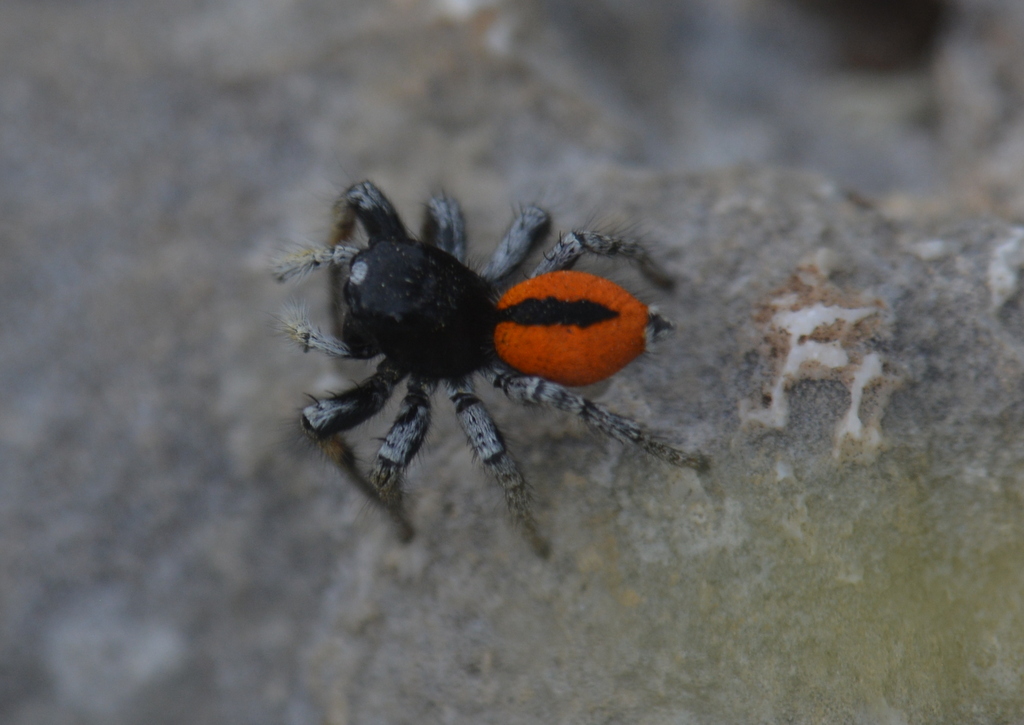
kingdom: Animalia
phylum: Arthropoda
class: Arachnida
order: Araneae
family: Salticidae
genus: Philaeus
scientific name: Philaeus chrysops
